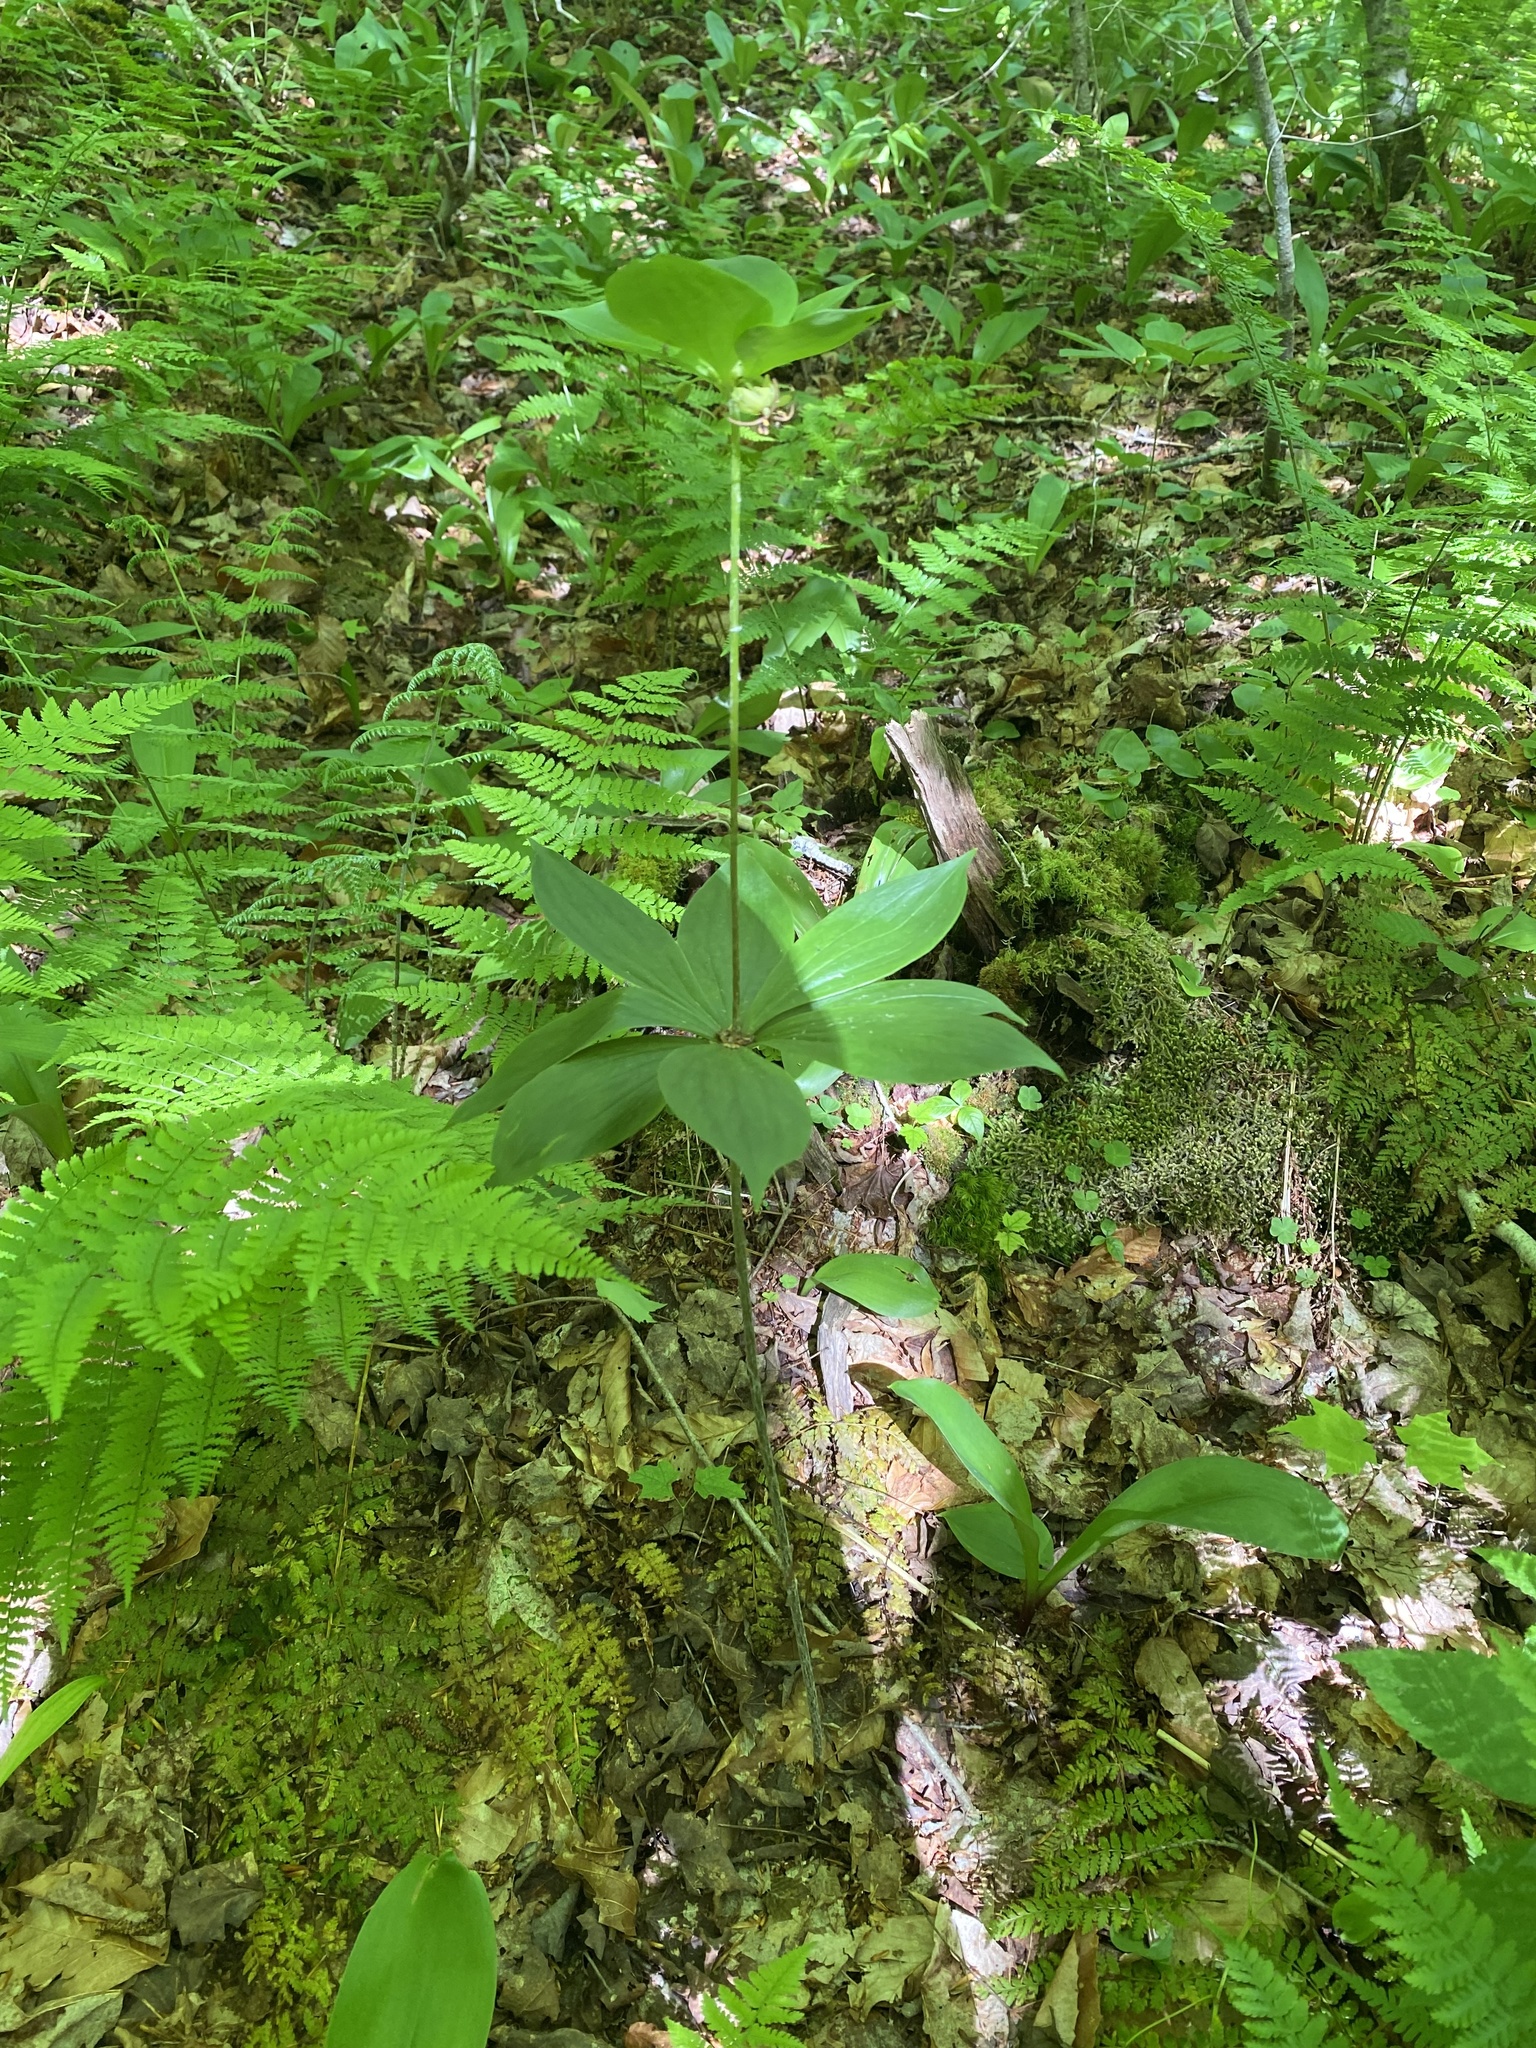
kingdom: Plantae
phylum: Tracheophyta
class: Liliopsida
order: Liliales
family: Liliaceae
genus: Medeola
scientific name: Medeola virginiana
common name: Indian cucumber-root
